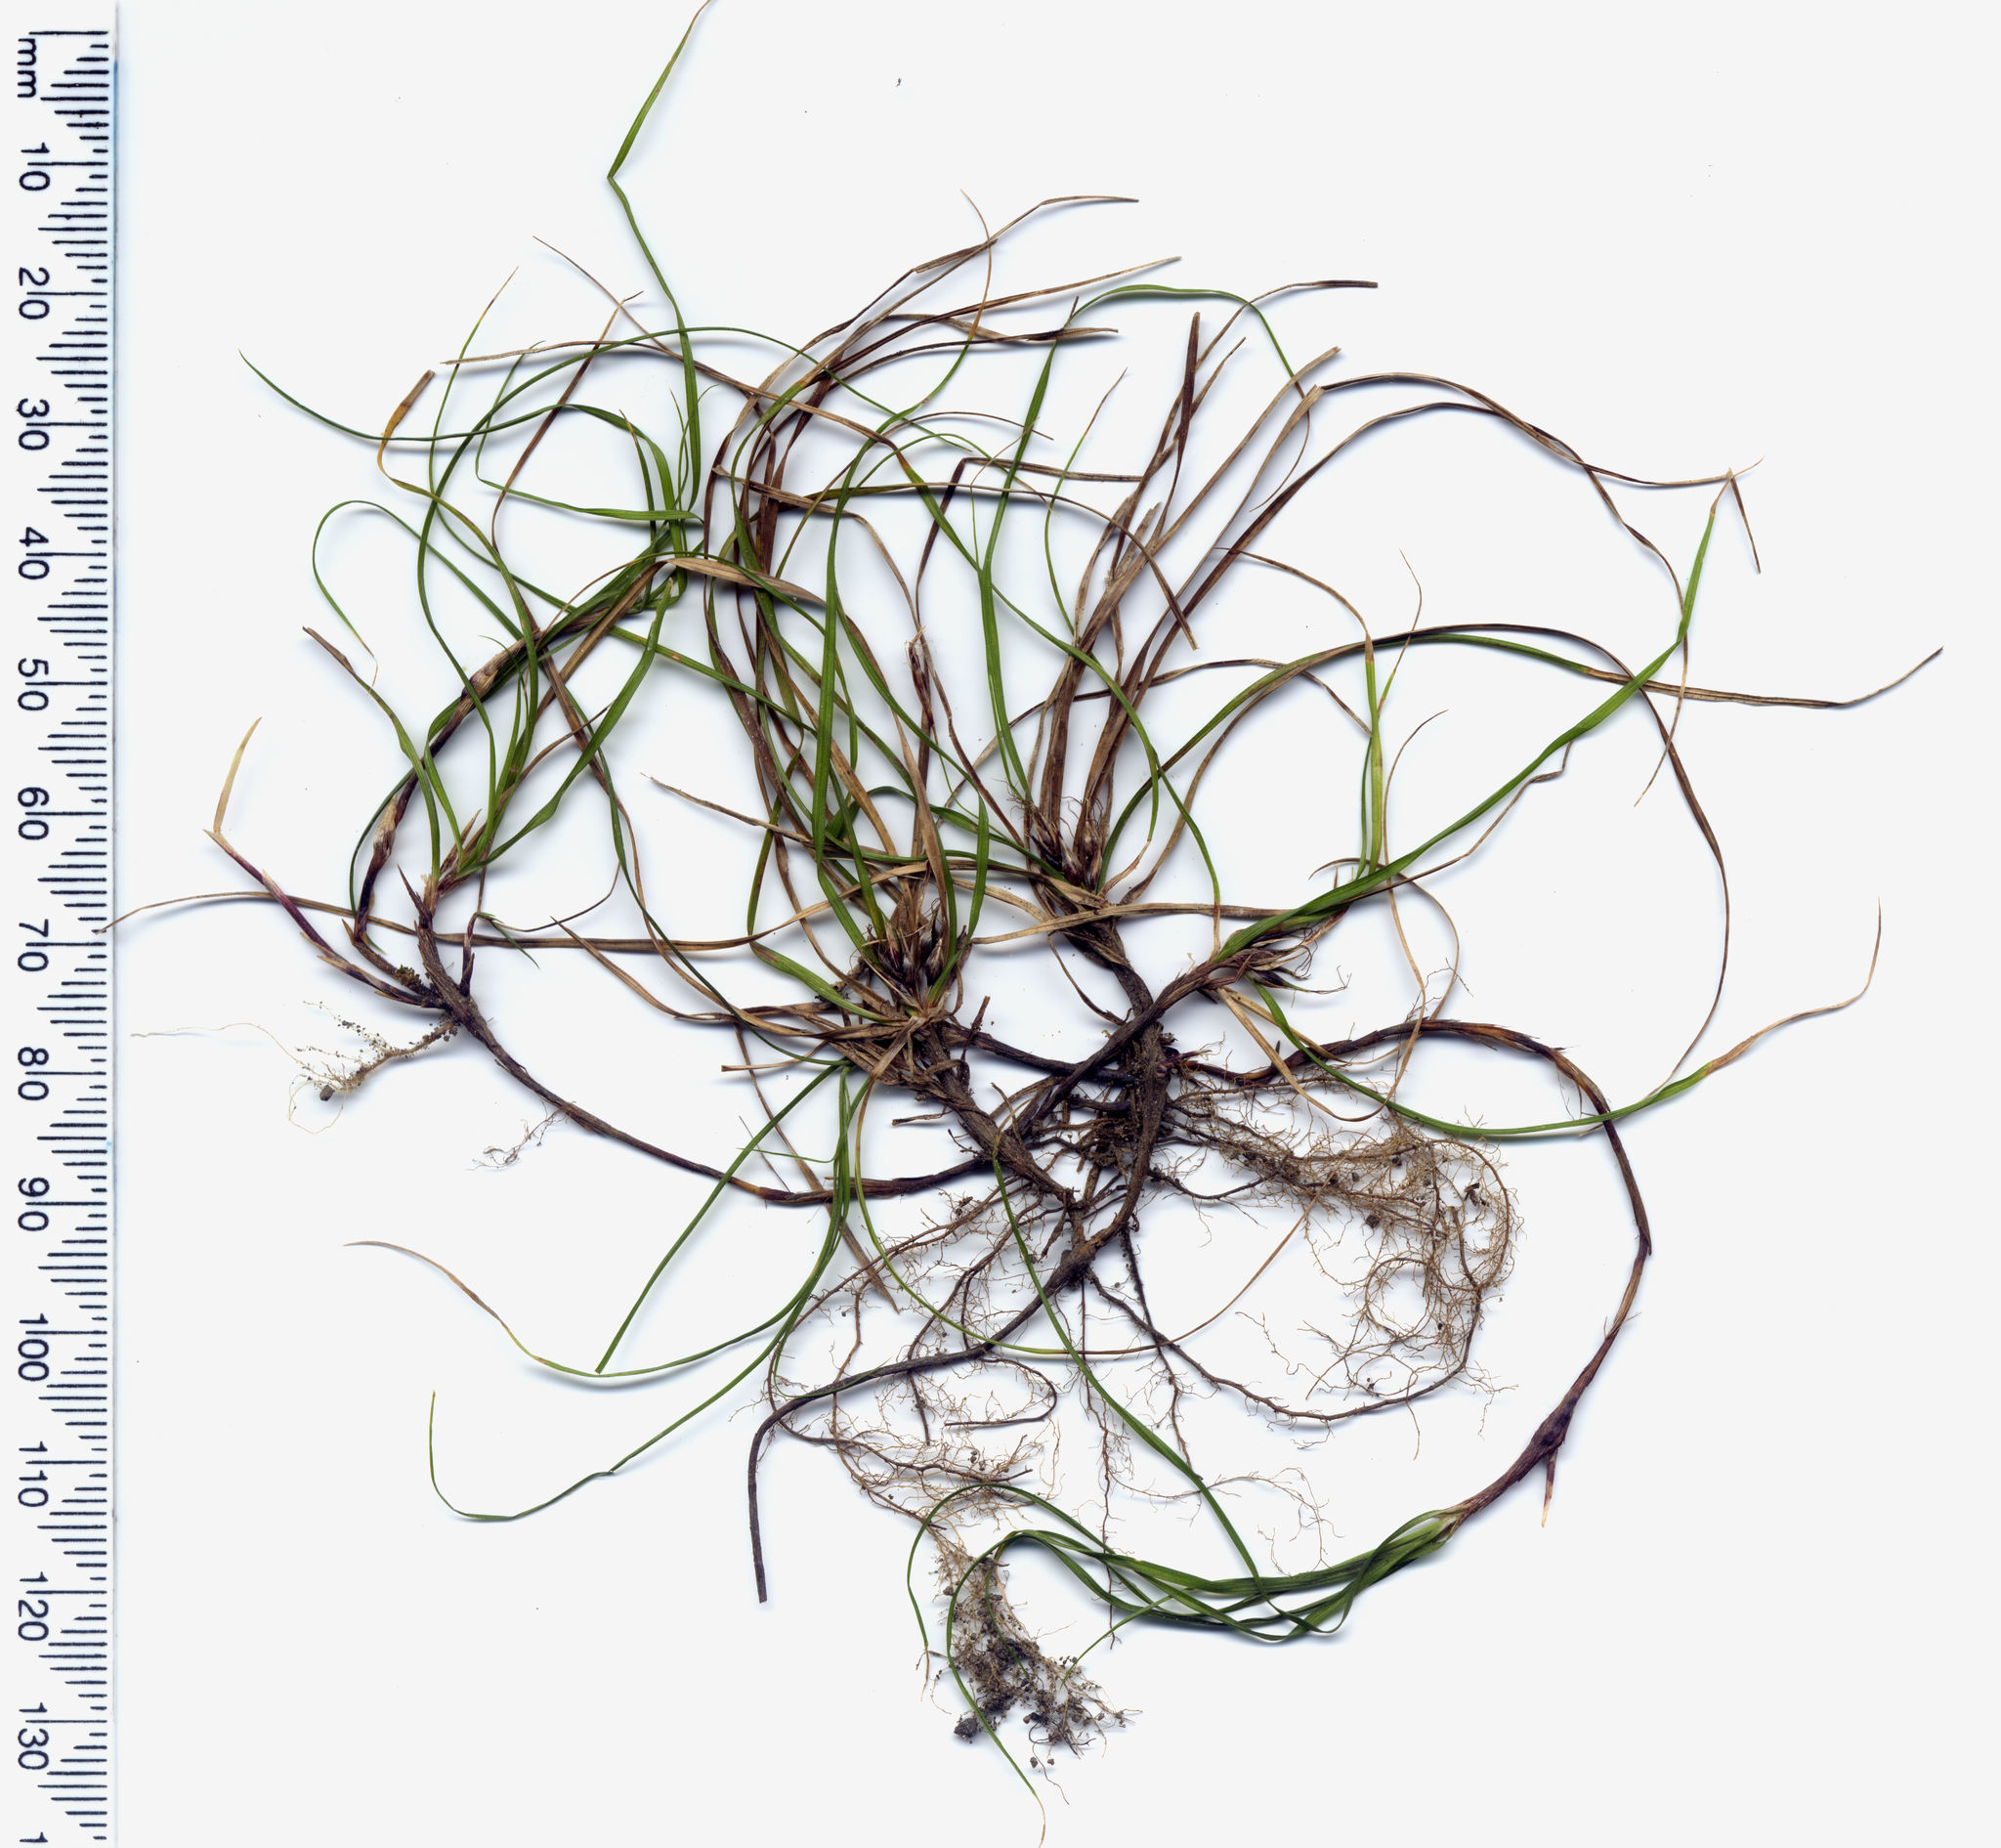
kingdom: Plantae
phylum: Tracheophyta
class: Liliopsida
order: Poales
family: Cyperaceae
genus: Carex
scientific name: Carex inopinata
